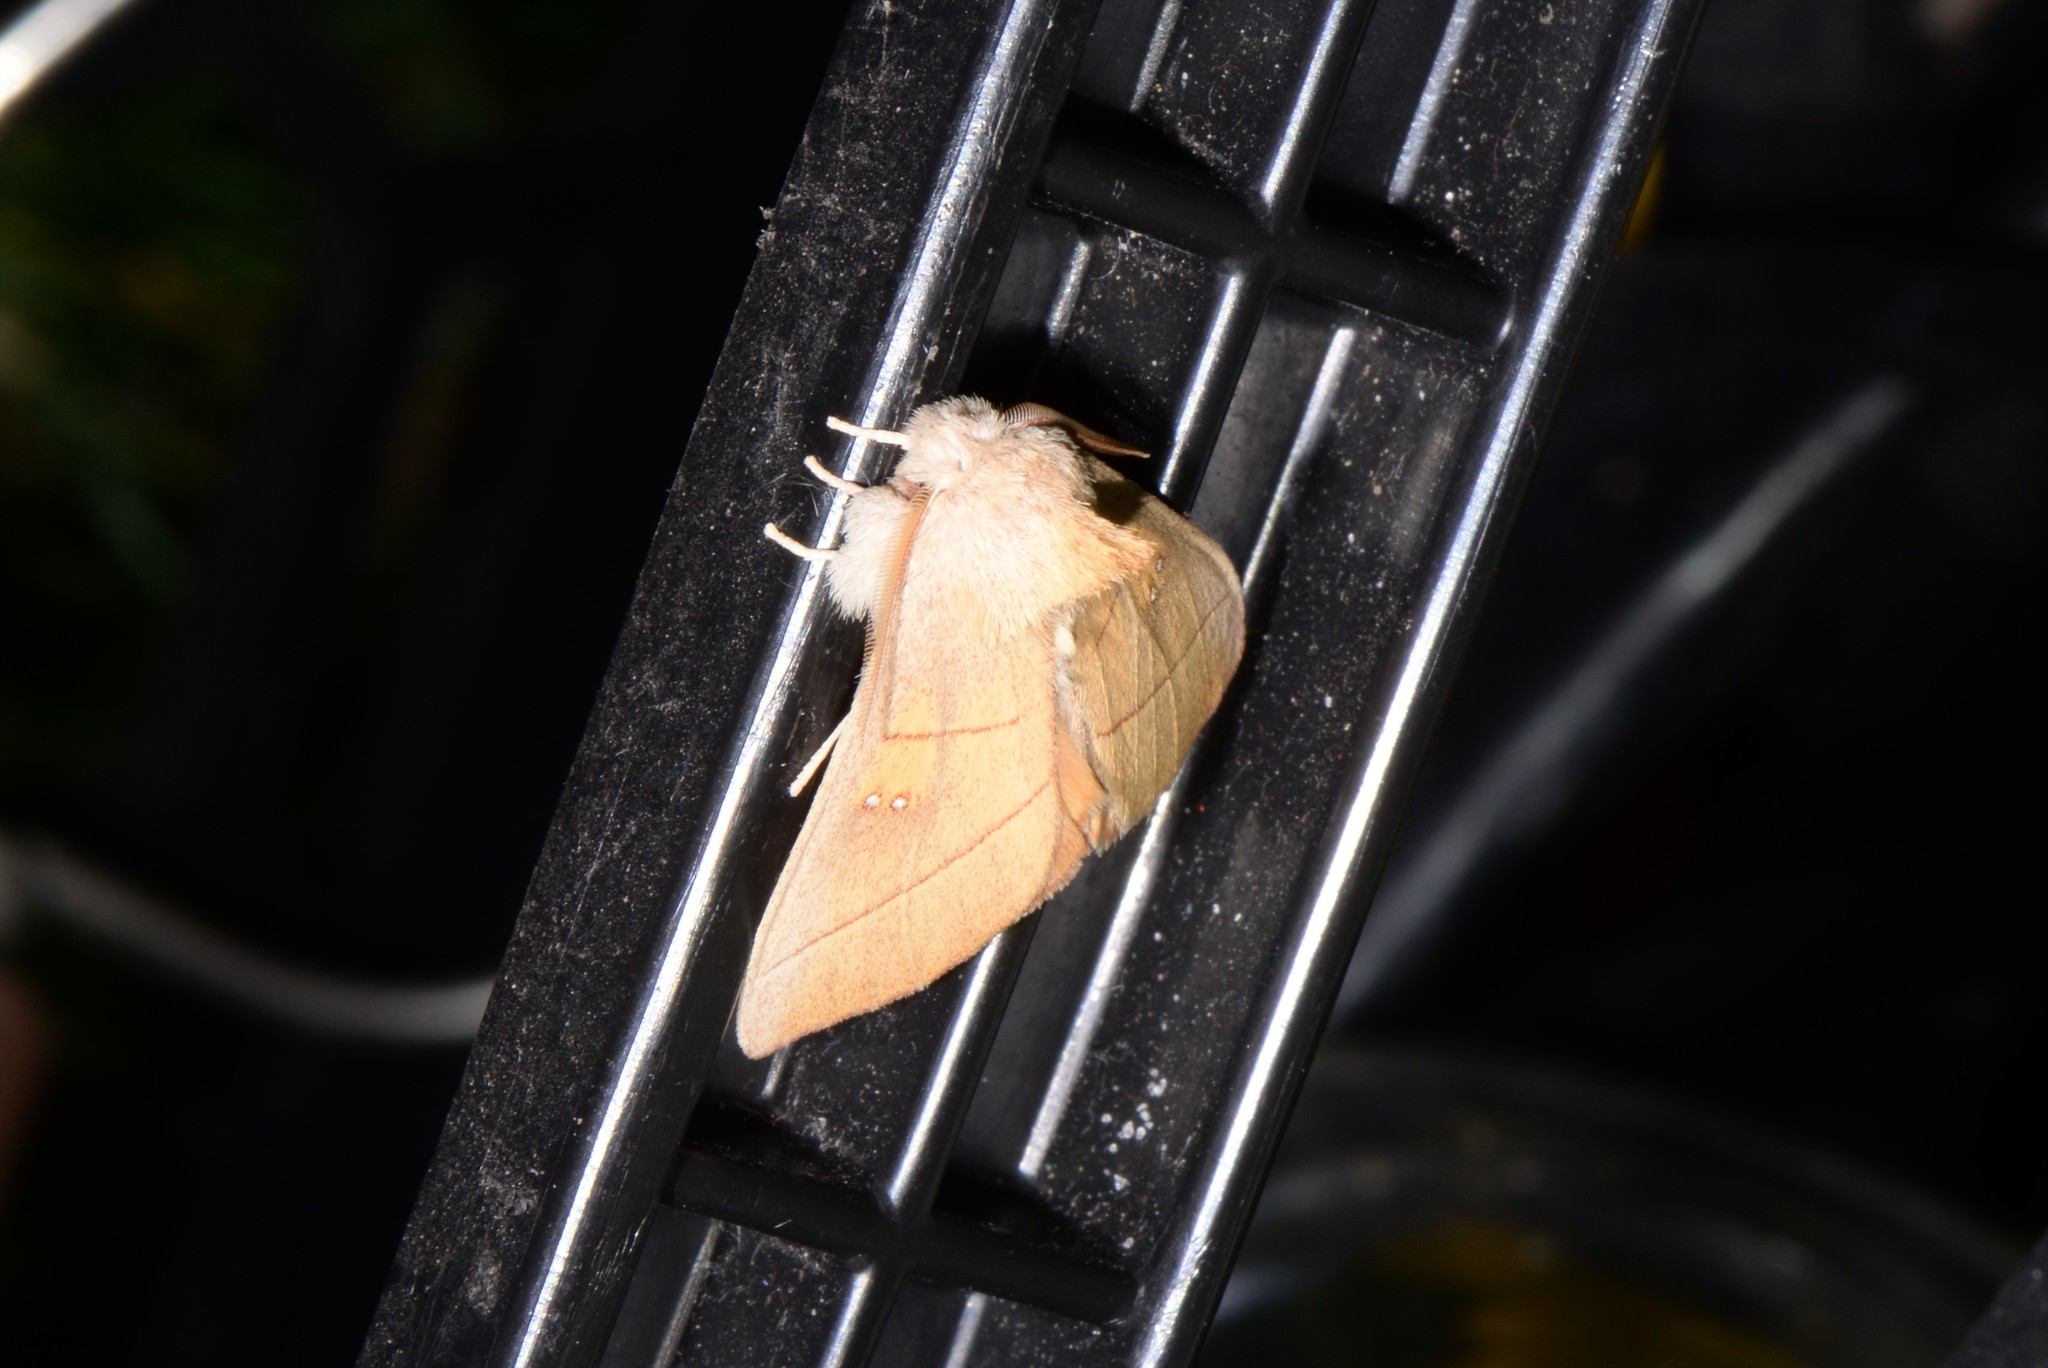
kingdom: Animalia
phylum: Arthropoda
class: Insecta
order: Lepidoptera
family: Notodontidae
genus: Nadata
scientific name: Nadata gibbosa
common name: White-dotted prominent
